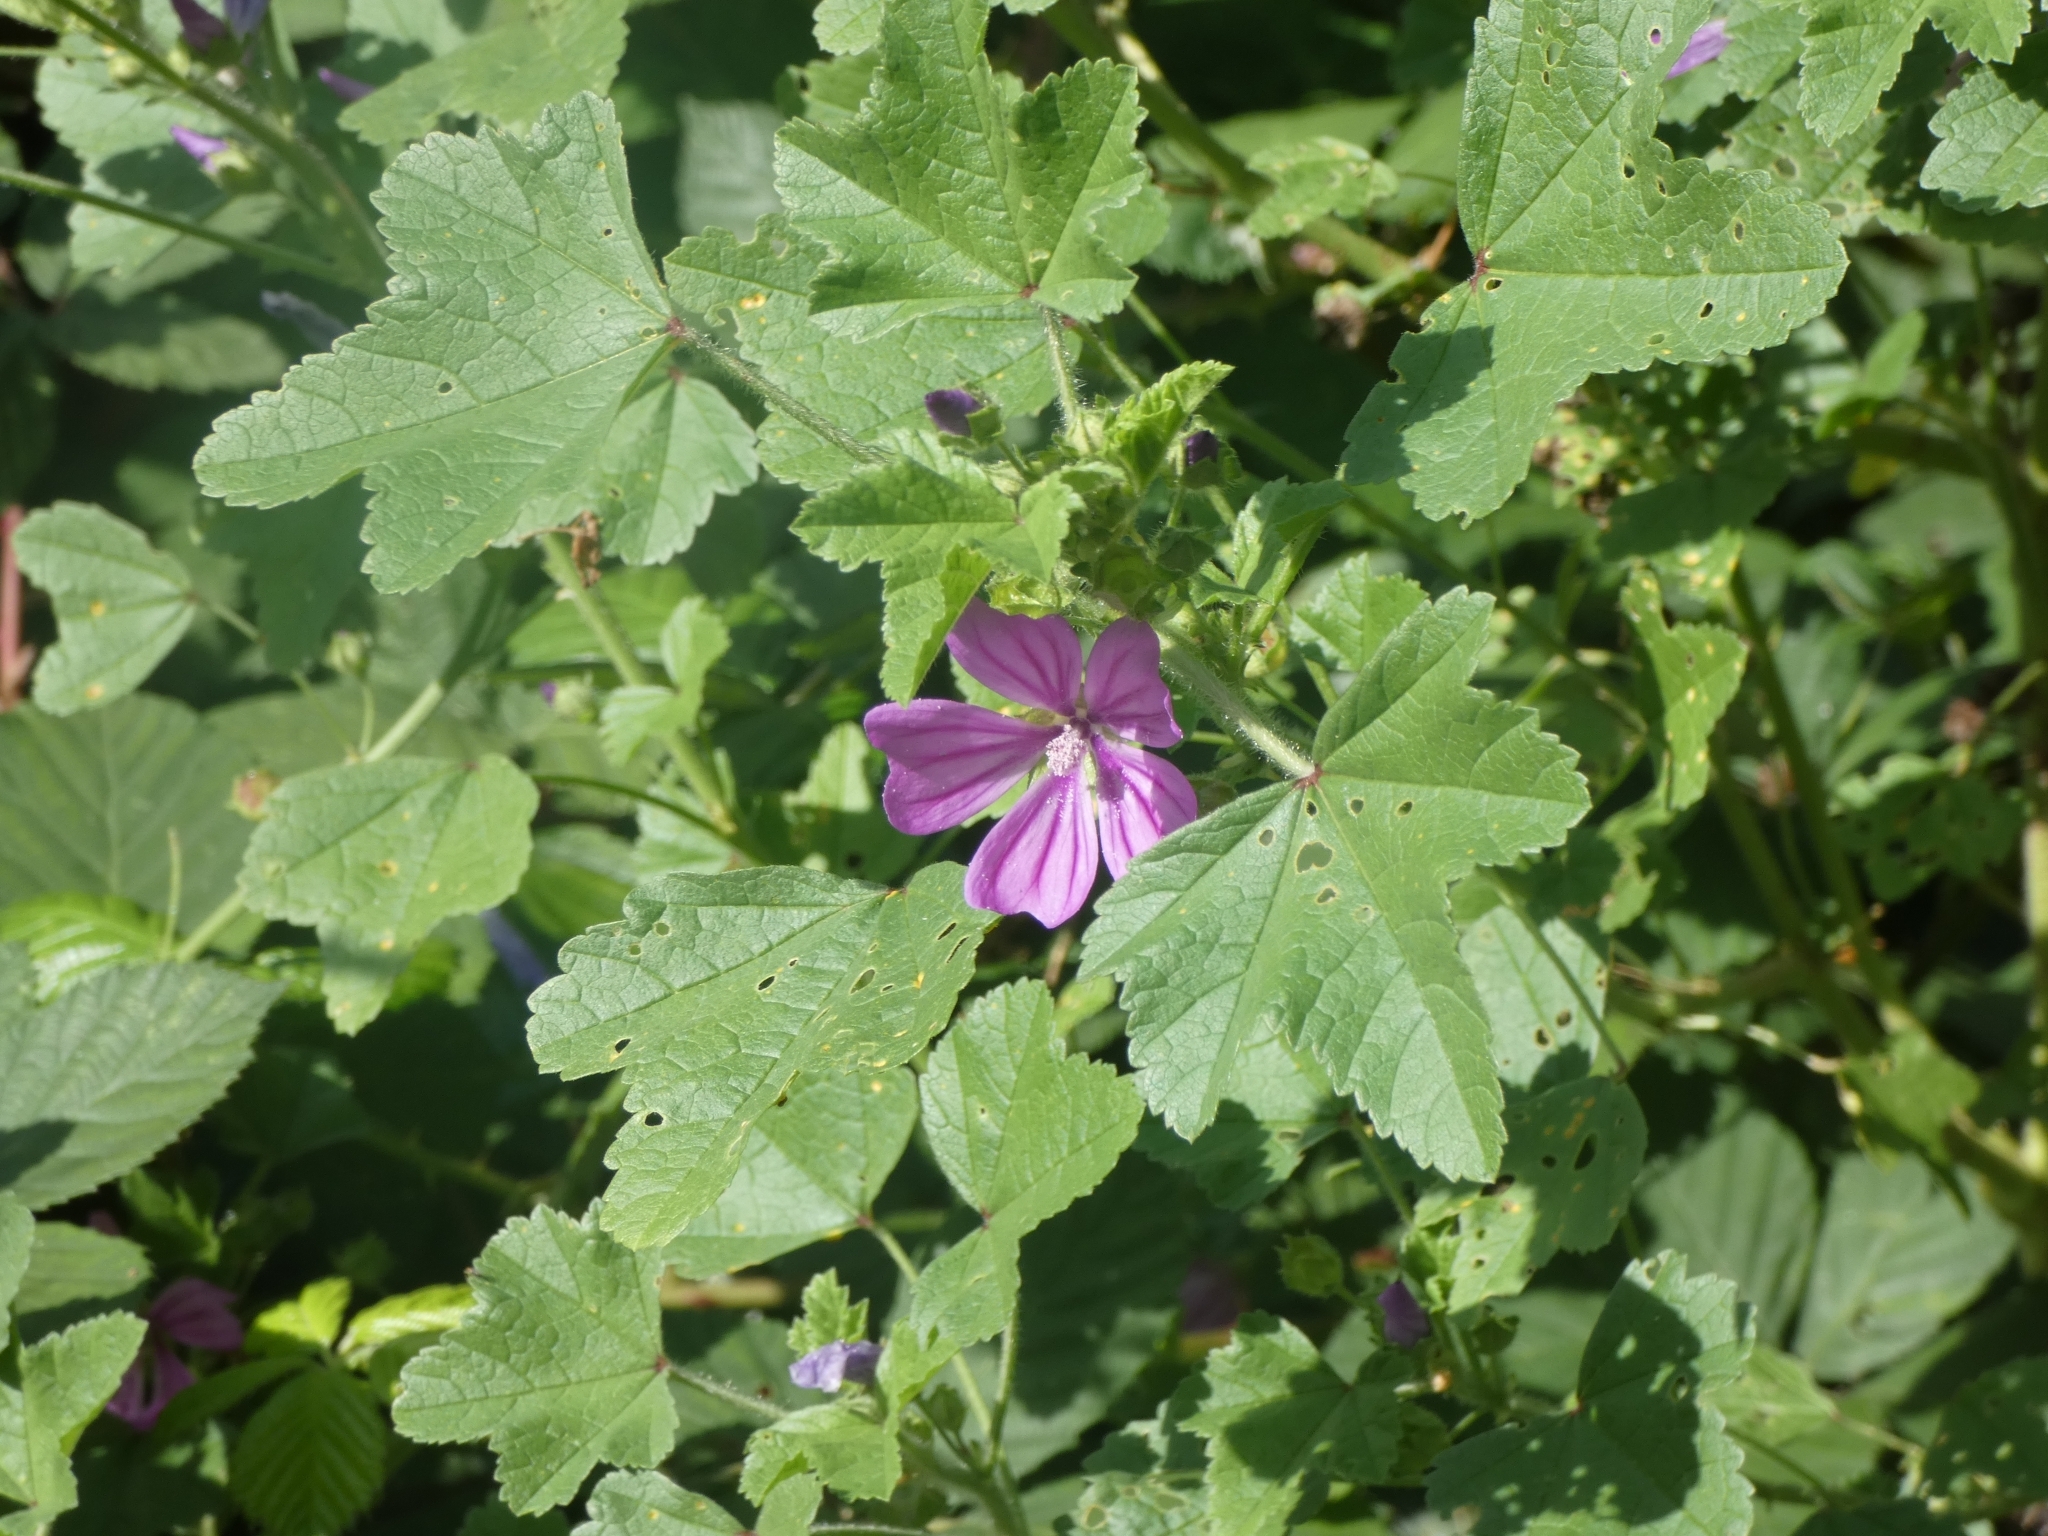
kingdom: Plantae
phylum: Tracheophyta
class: Magnoliopsida
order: Malvales
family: Malvaceae
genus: Malva
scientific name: Malva sylvestris
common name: Common mallow
